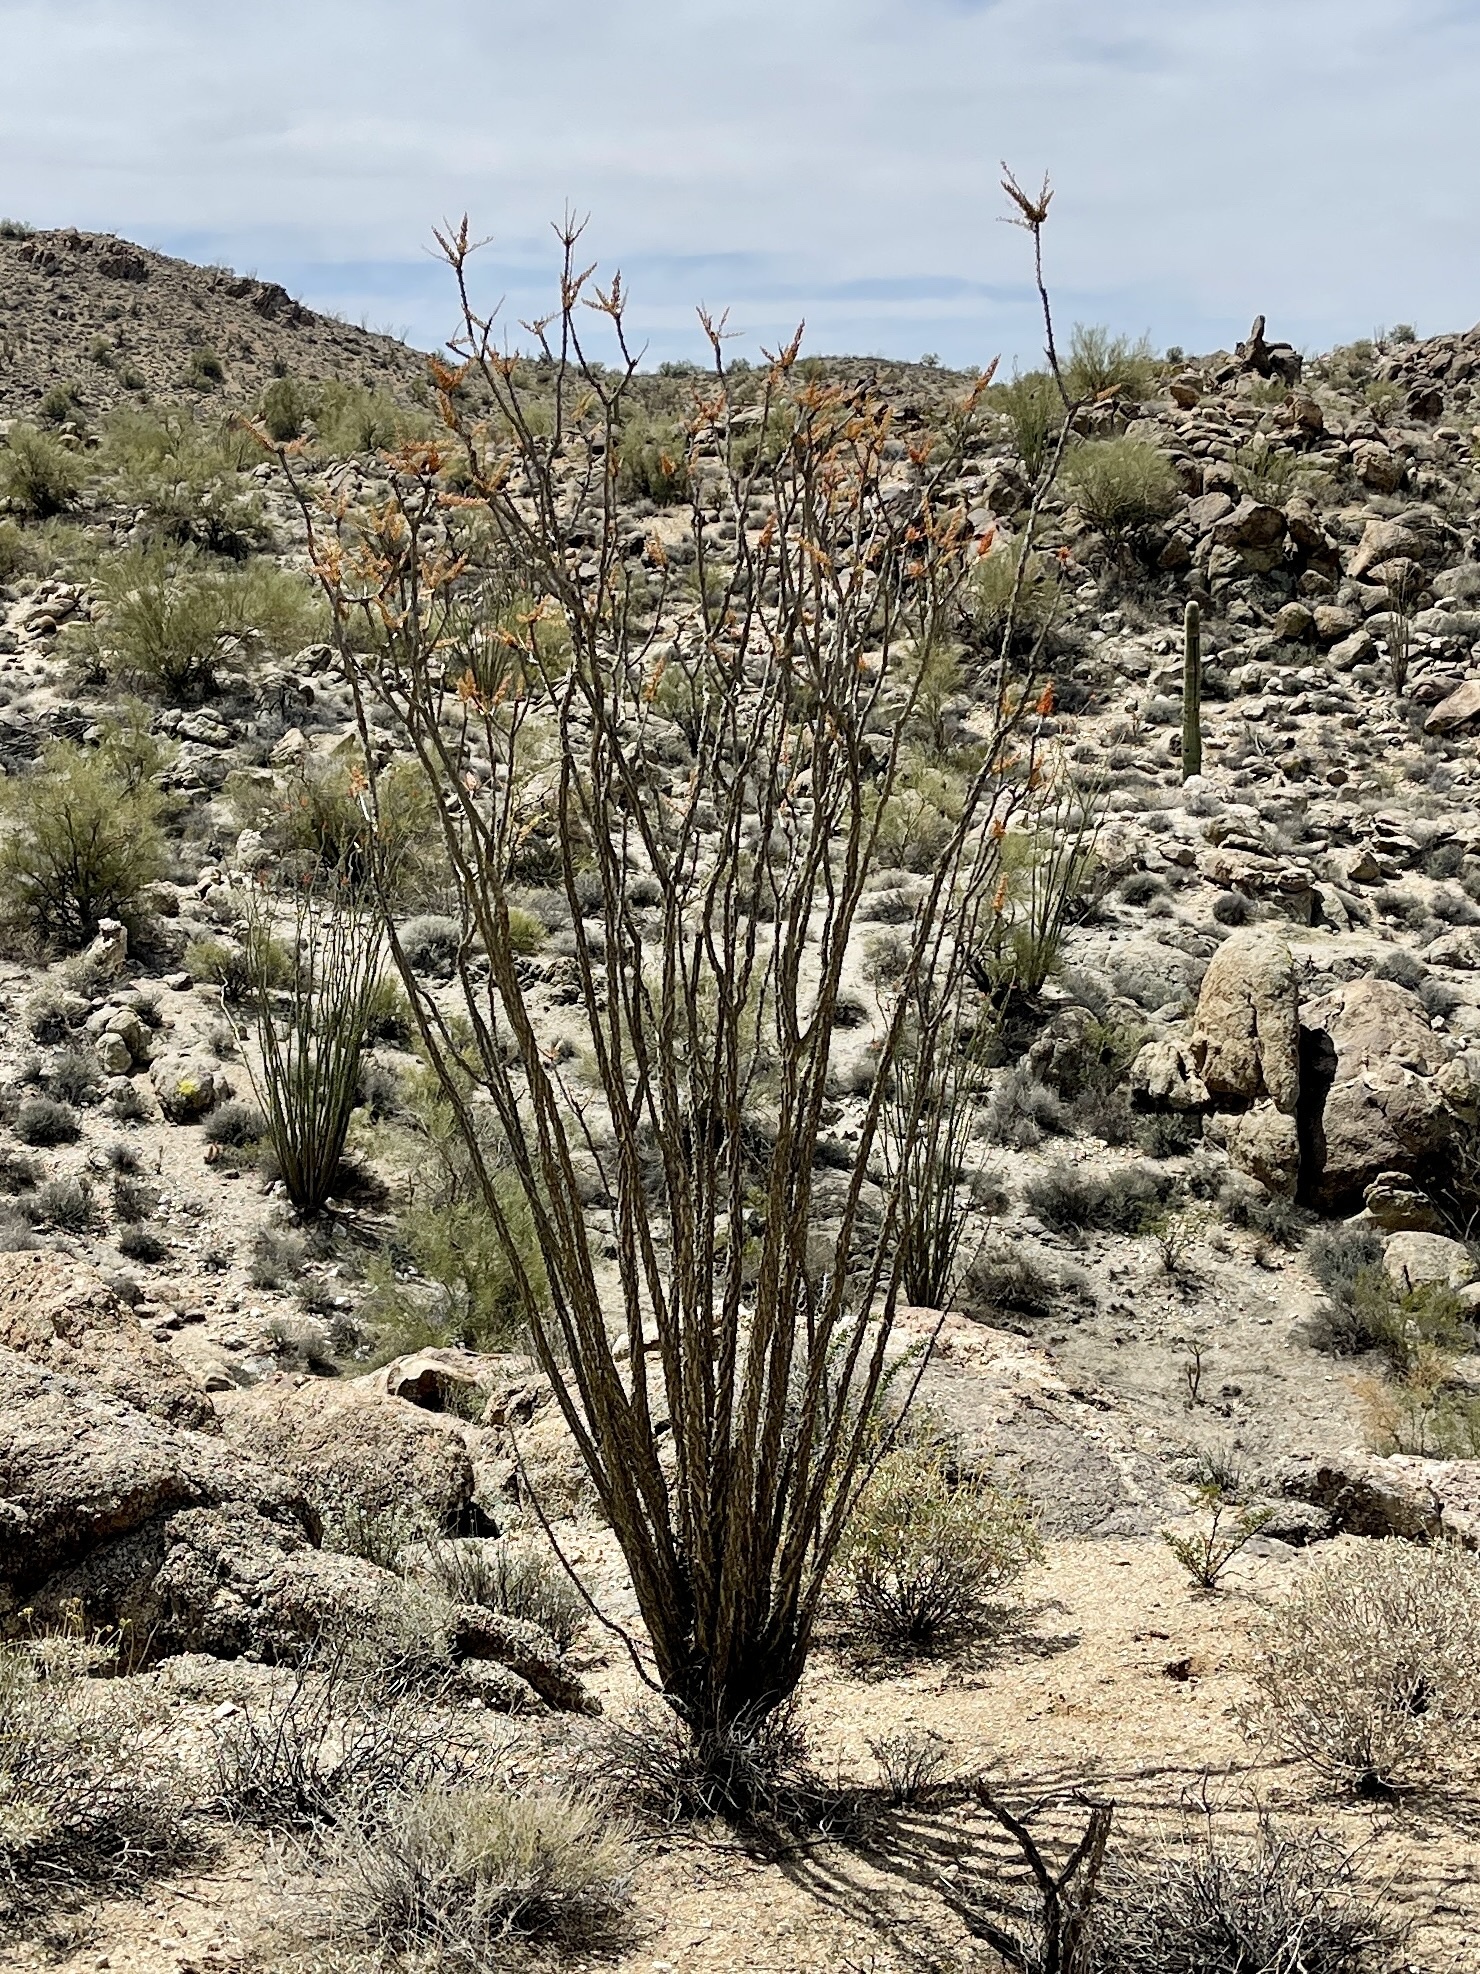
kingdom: Plantae
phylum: Tracheophyta
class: Magnoliopsida
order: Ericales
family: Fouquieriaceae
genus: Fouquieria
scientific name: Fouquieria splendens
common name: Vine-cactus
